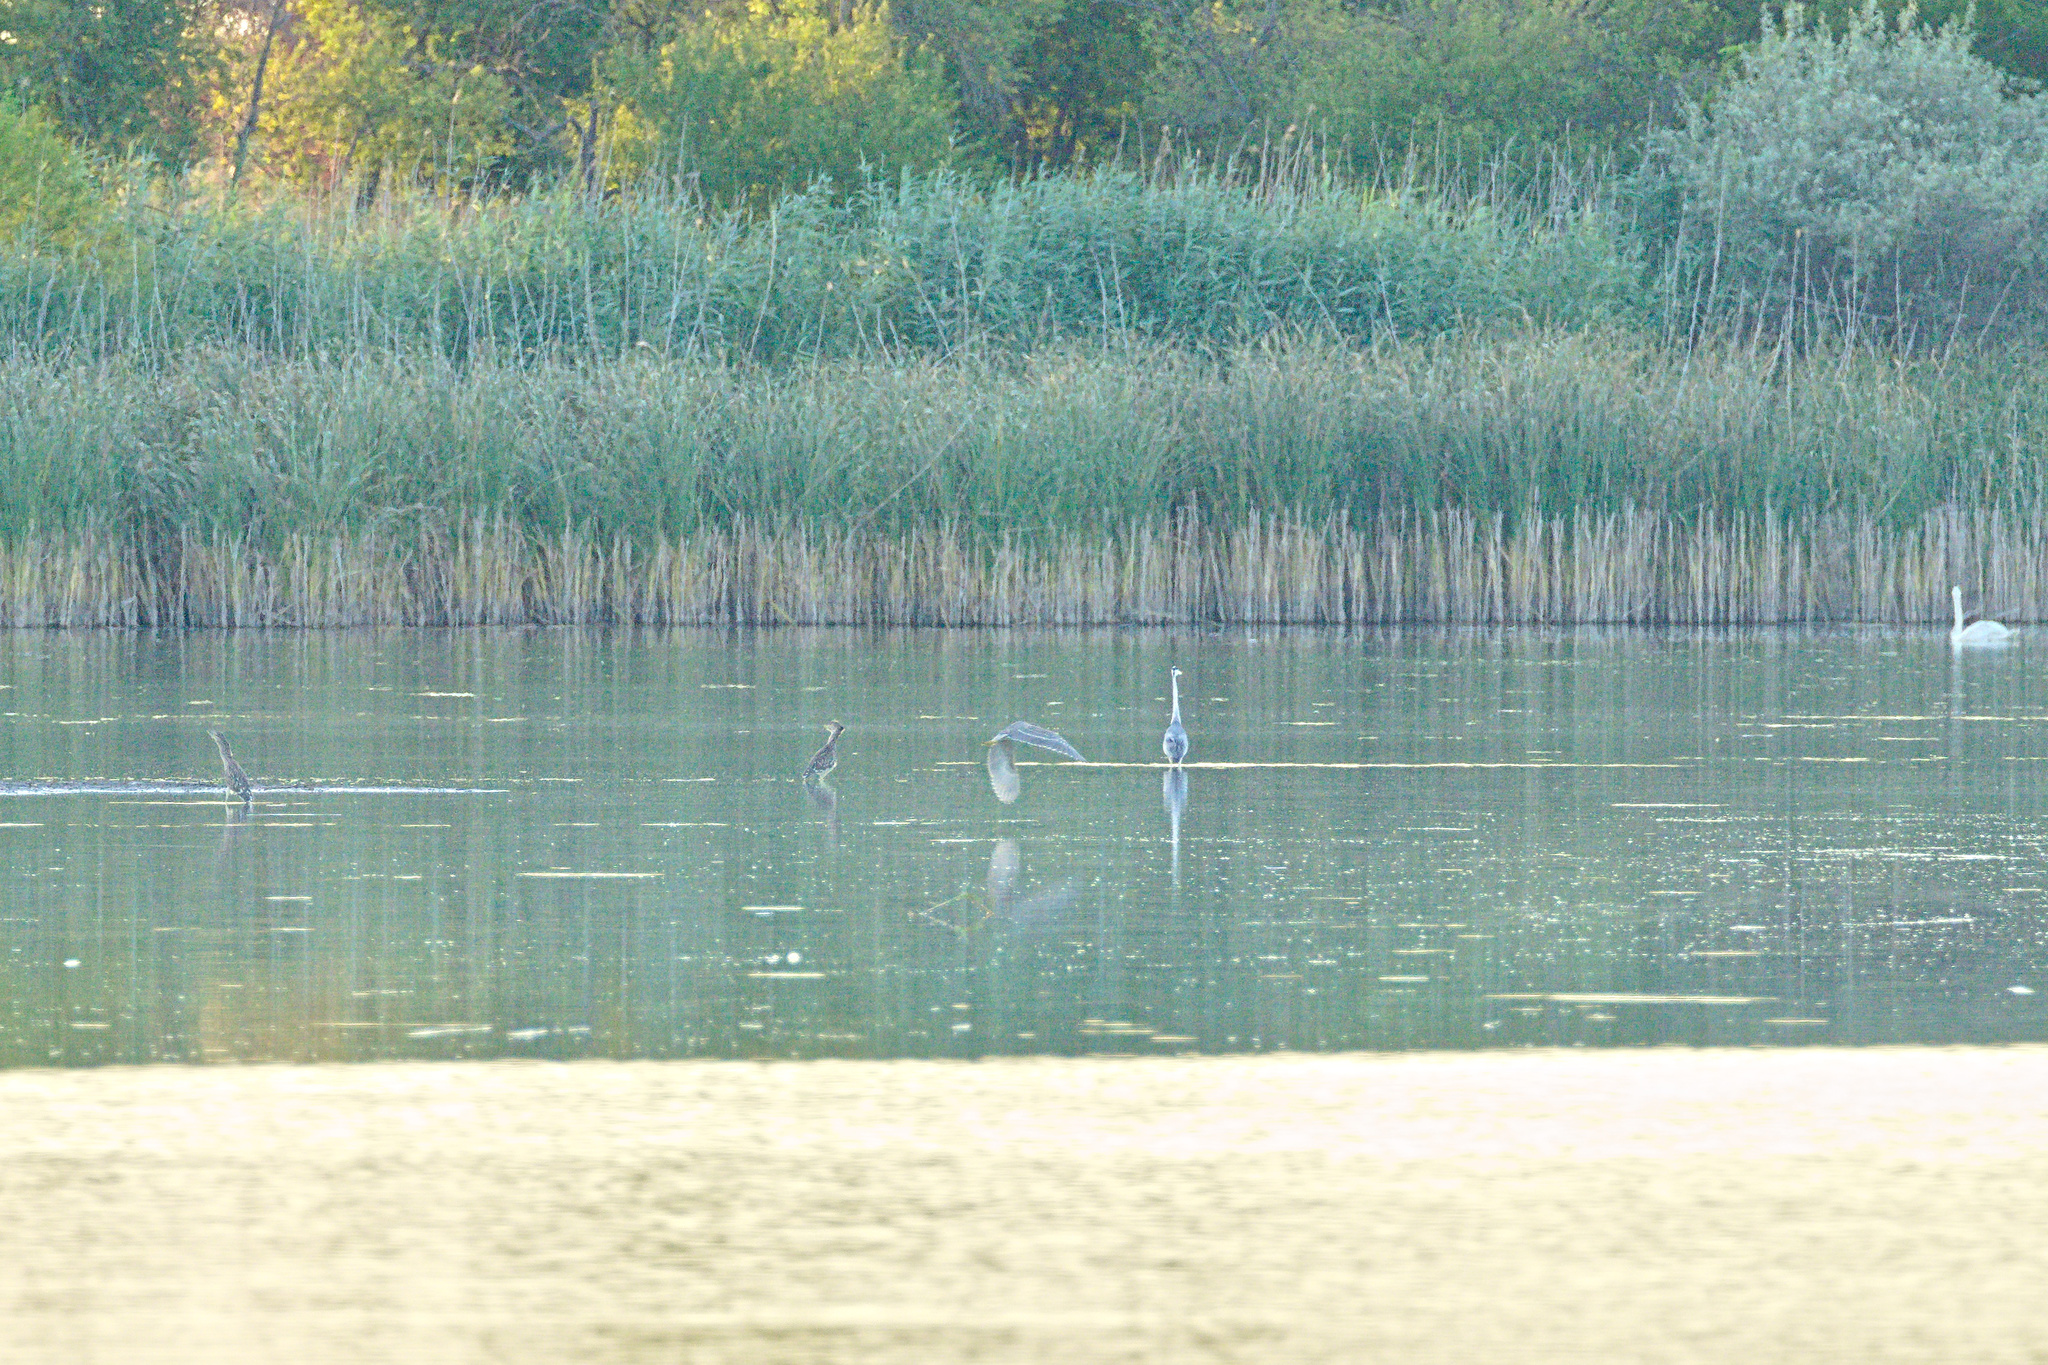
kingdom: Animalia
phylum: Chordata
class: Aves
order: Pelecaniformes
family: Ardeidae
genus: Nycticorax
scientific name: Nycticorax nycticorax
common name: Black-crowned night heron
